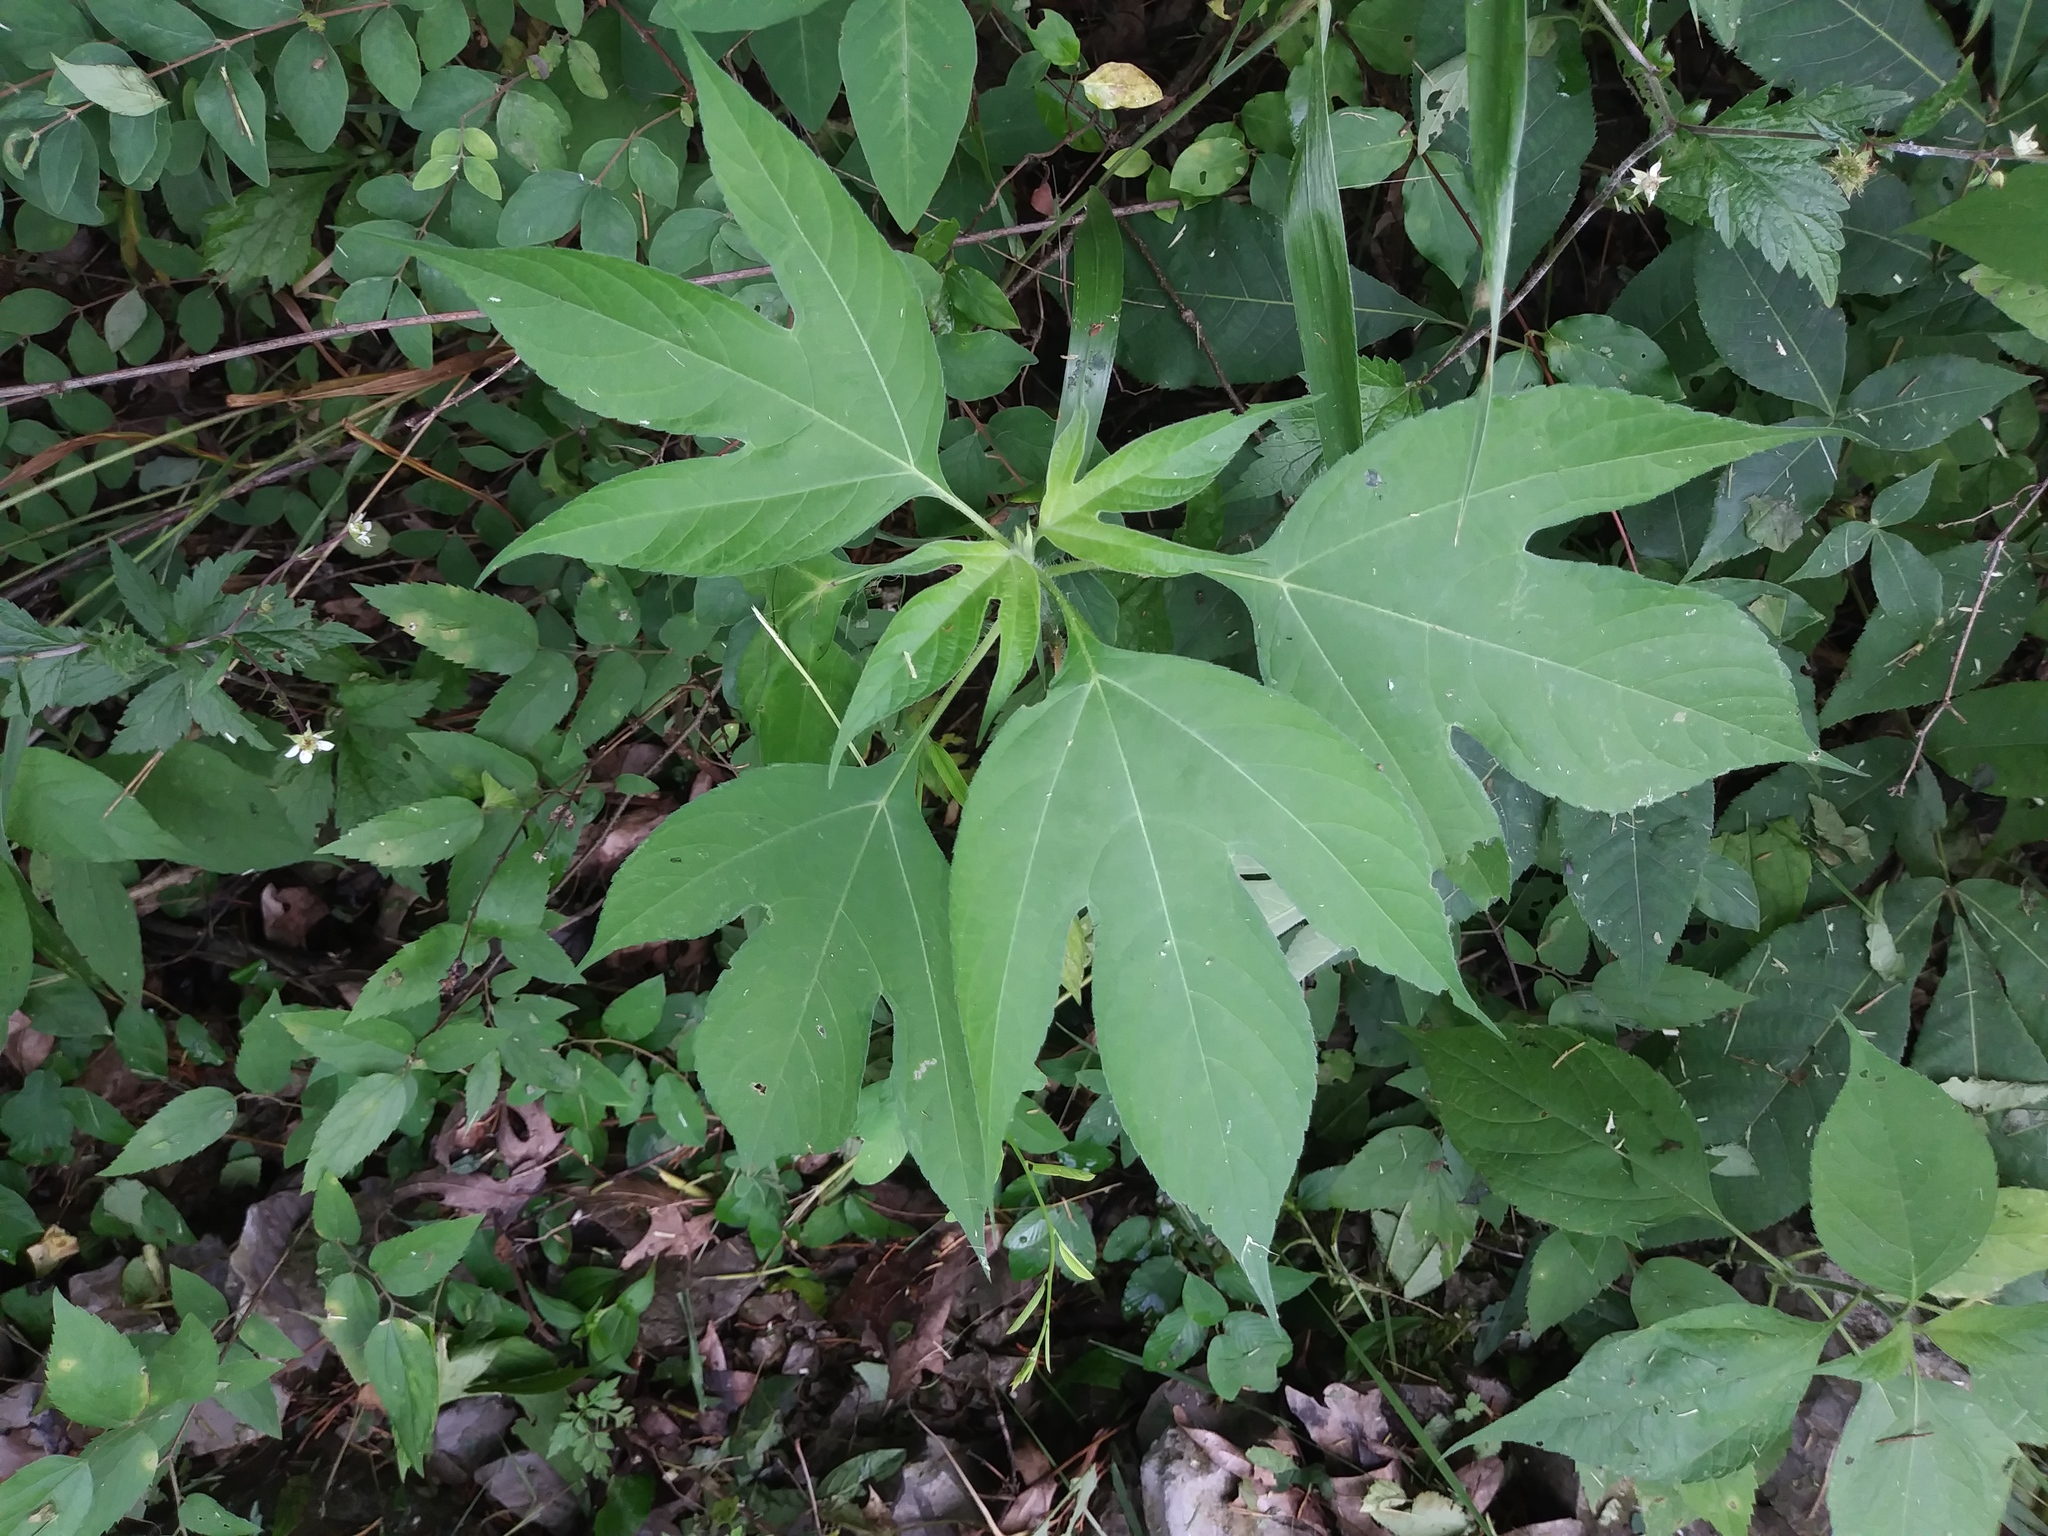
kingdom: Plantae
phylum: Tracheophyta
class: Magnoliopsida
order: Asterales
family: Asteraceae
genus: Ambrosia
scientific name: Ambrosia trifida
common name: Giant ragweed
